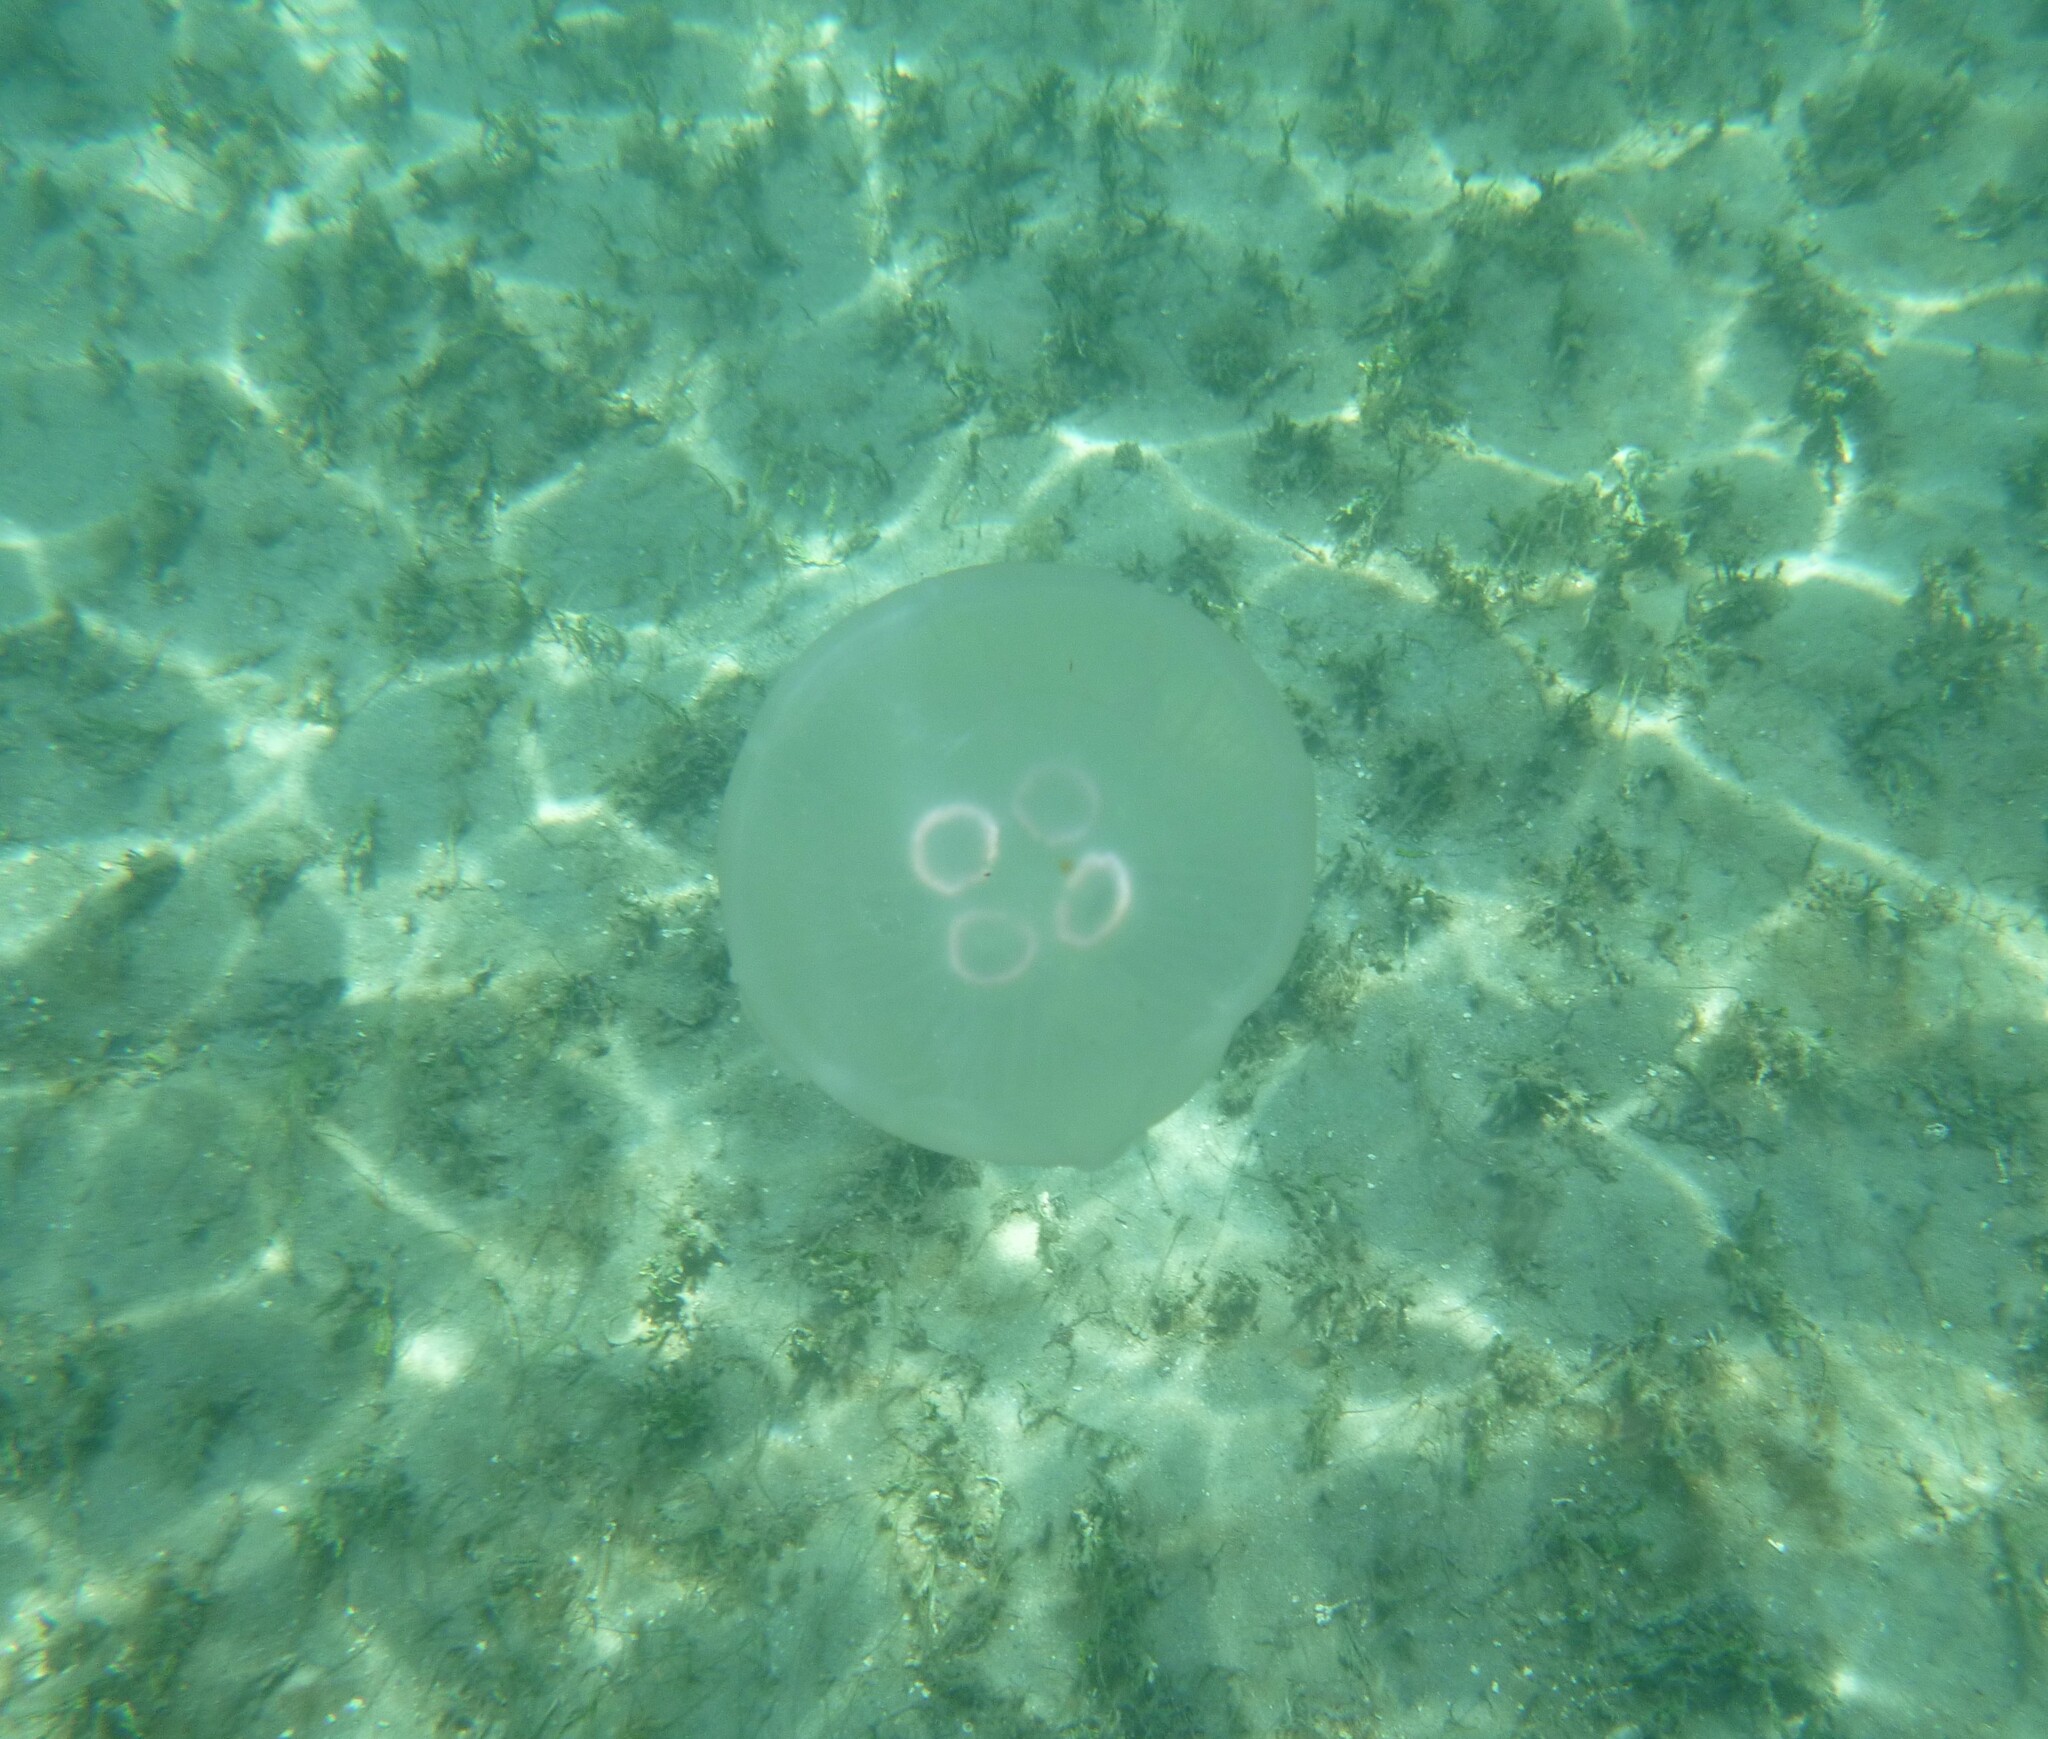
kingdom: Animalia
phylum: Cnidaria
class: Scyphozoa
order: Semaeostomeae
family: Ulmaridae
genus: Aurelia
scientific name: Aurelia marginalis
